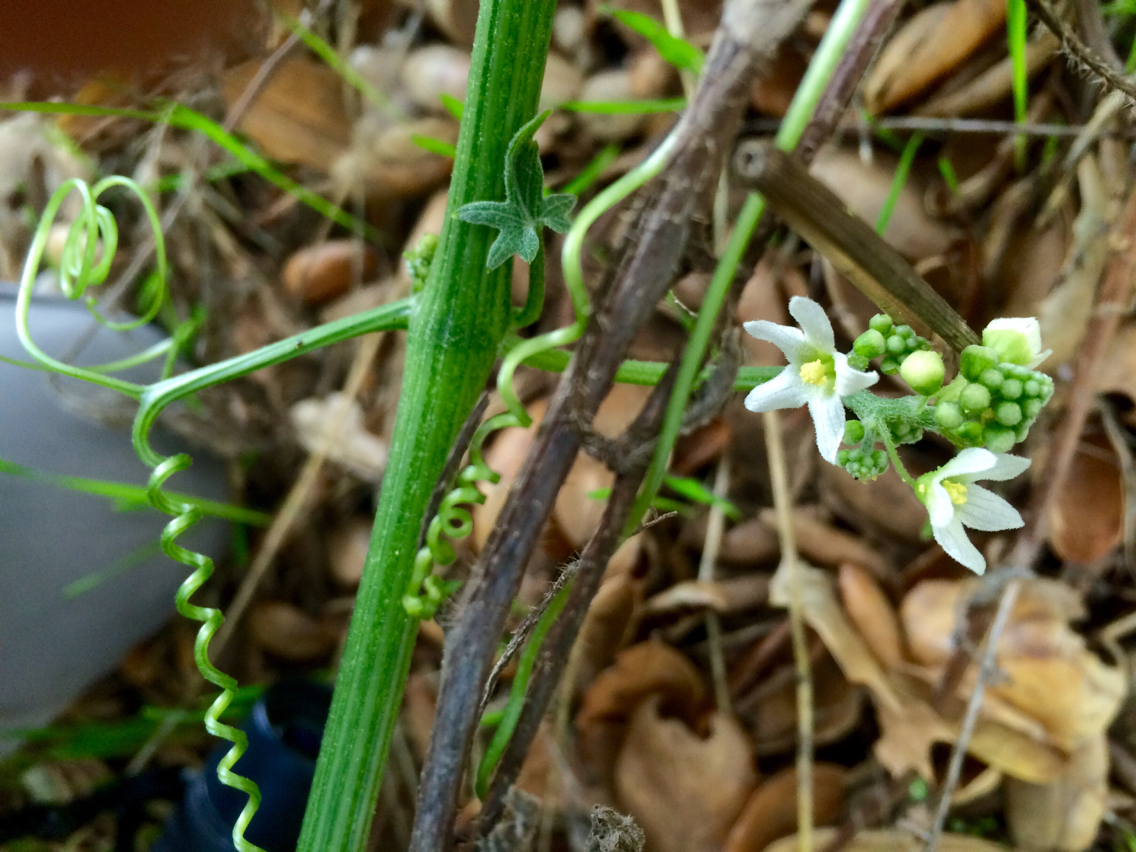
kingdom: Plantae
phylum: Tracheophyta
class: Magnoliopsida
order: Cucurbitales
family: Cucurbitaceae
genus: Marah
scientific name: Marah macrocarpa
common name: Cucamonga manroot
